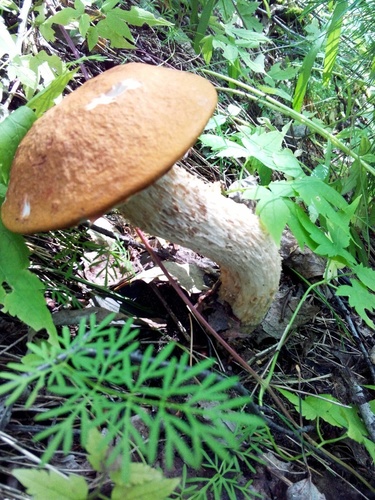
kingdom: Fungi
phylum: Basidiomycota
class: Agaricomycetes
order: Boletales
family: Boletaceae
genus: Leccinum
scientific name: Leccinum albostipitatum
